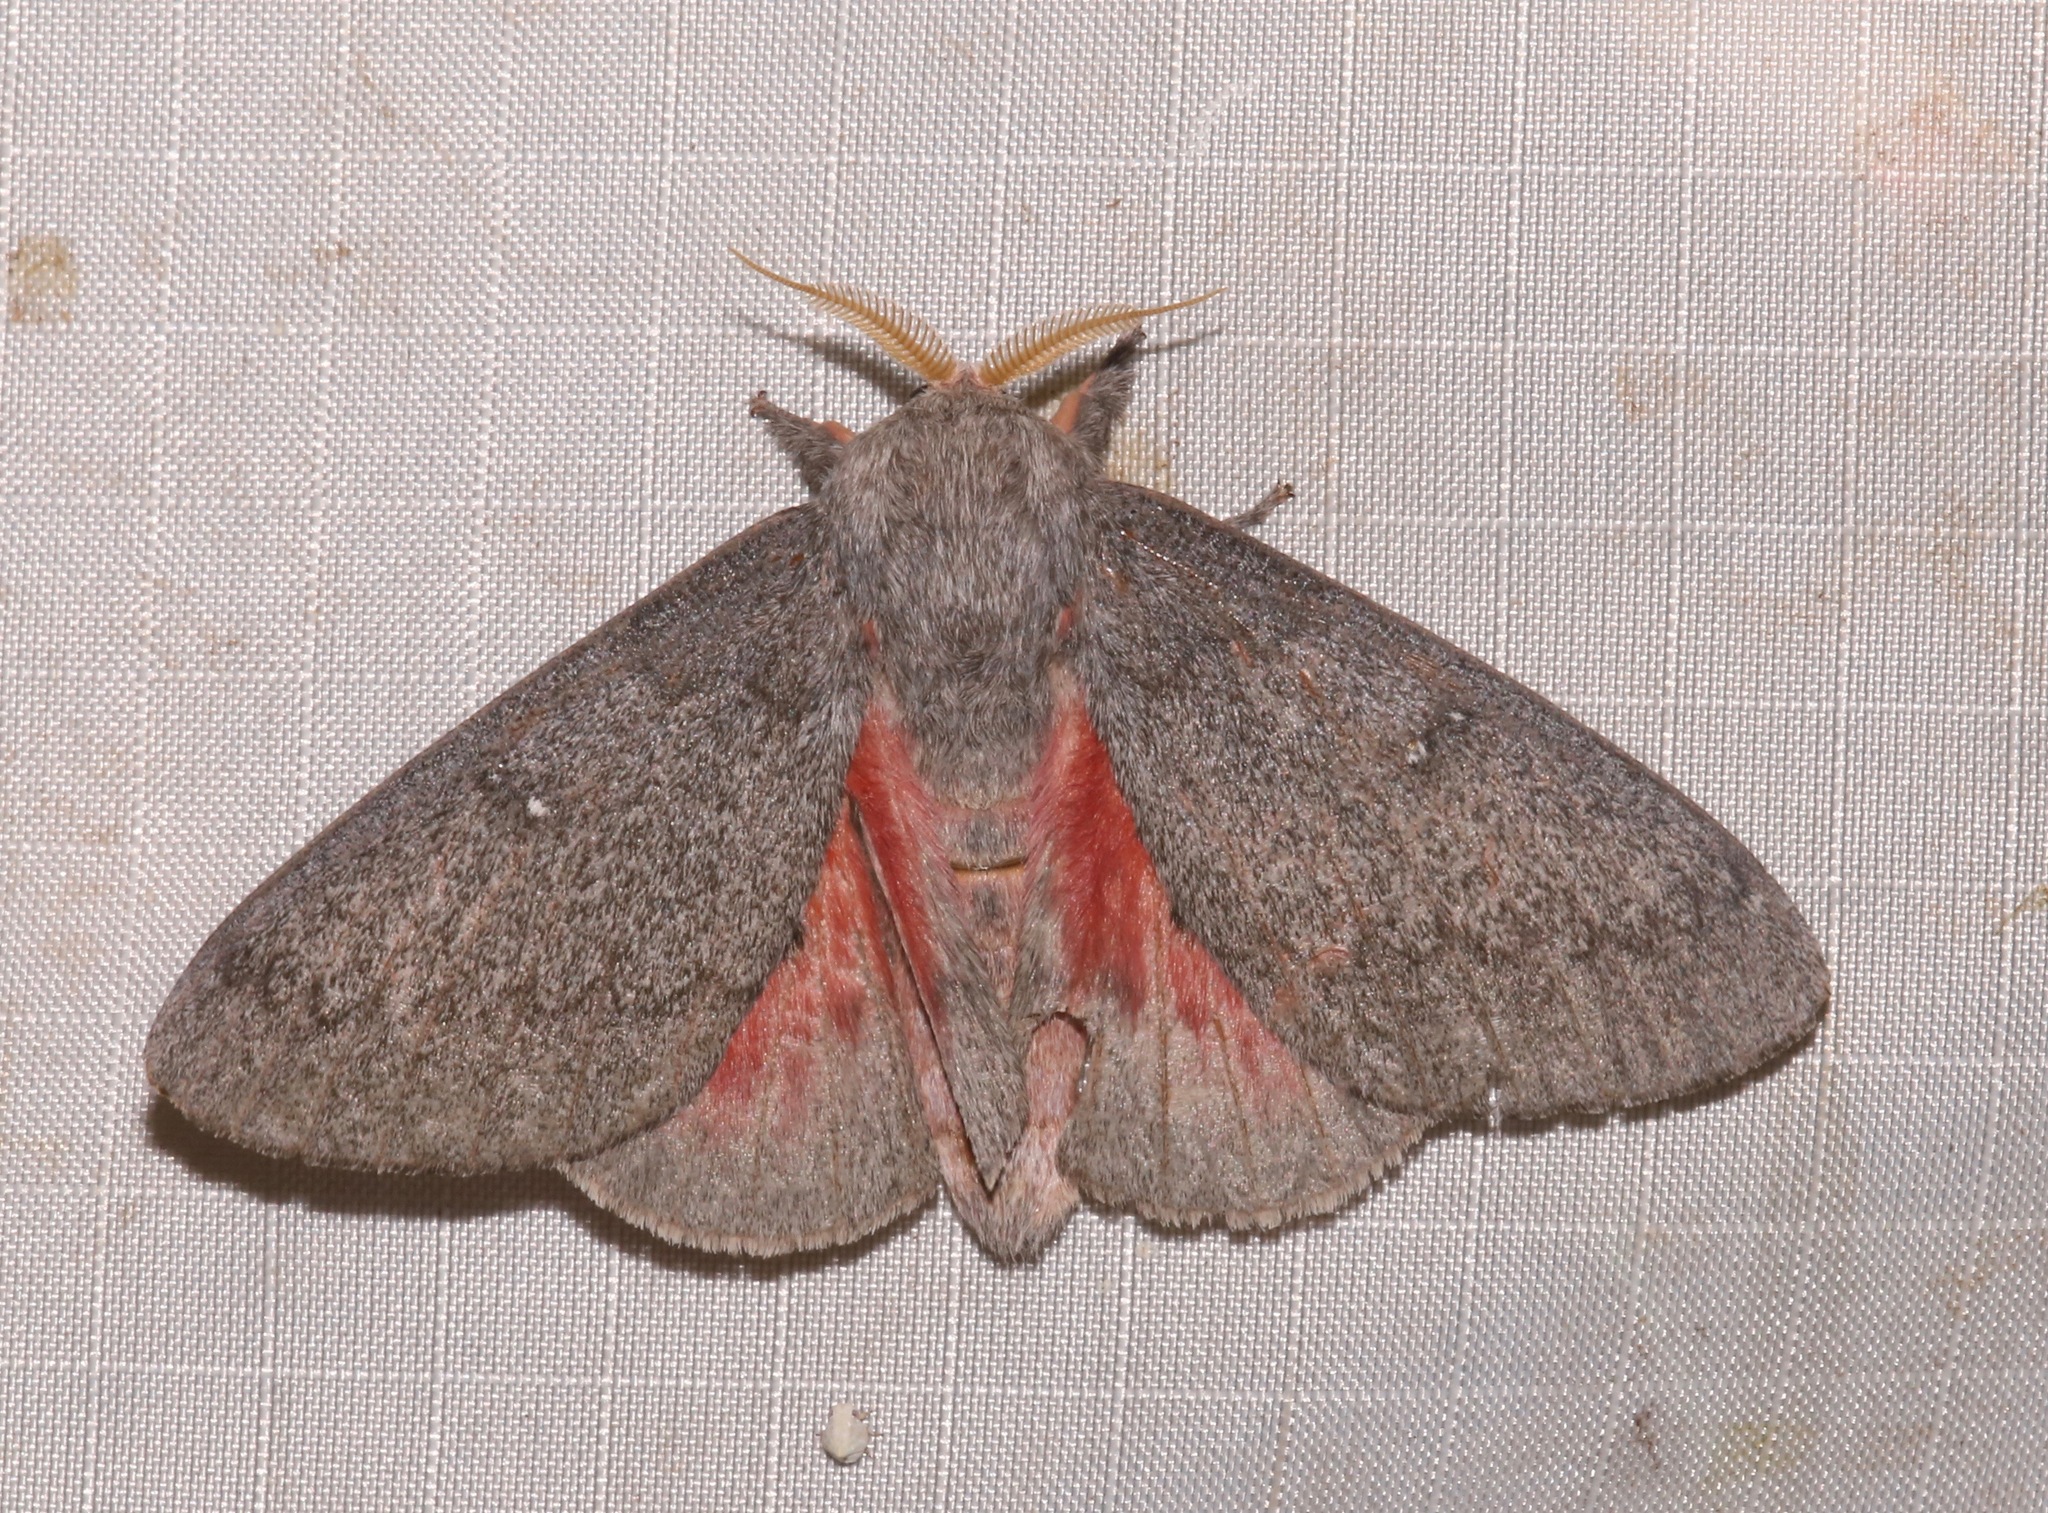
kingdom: Animalia
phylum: Arthropoda
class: Insecta
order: Lepidoptera
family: Saturniidae
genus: Syssphinx
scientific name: Syssphinx hubbardi
